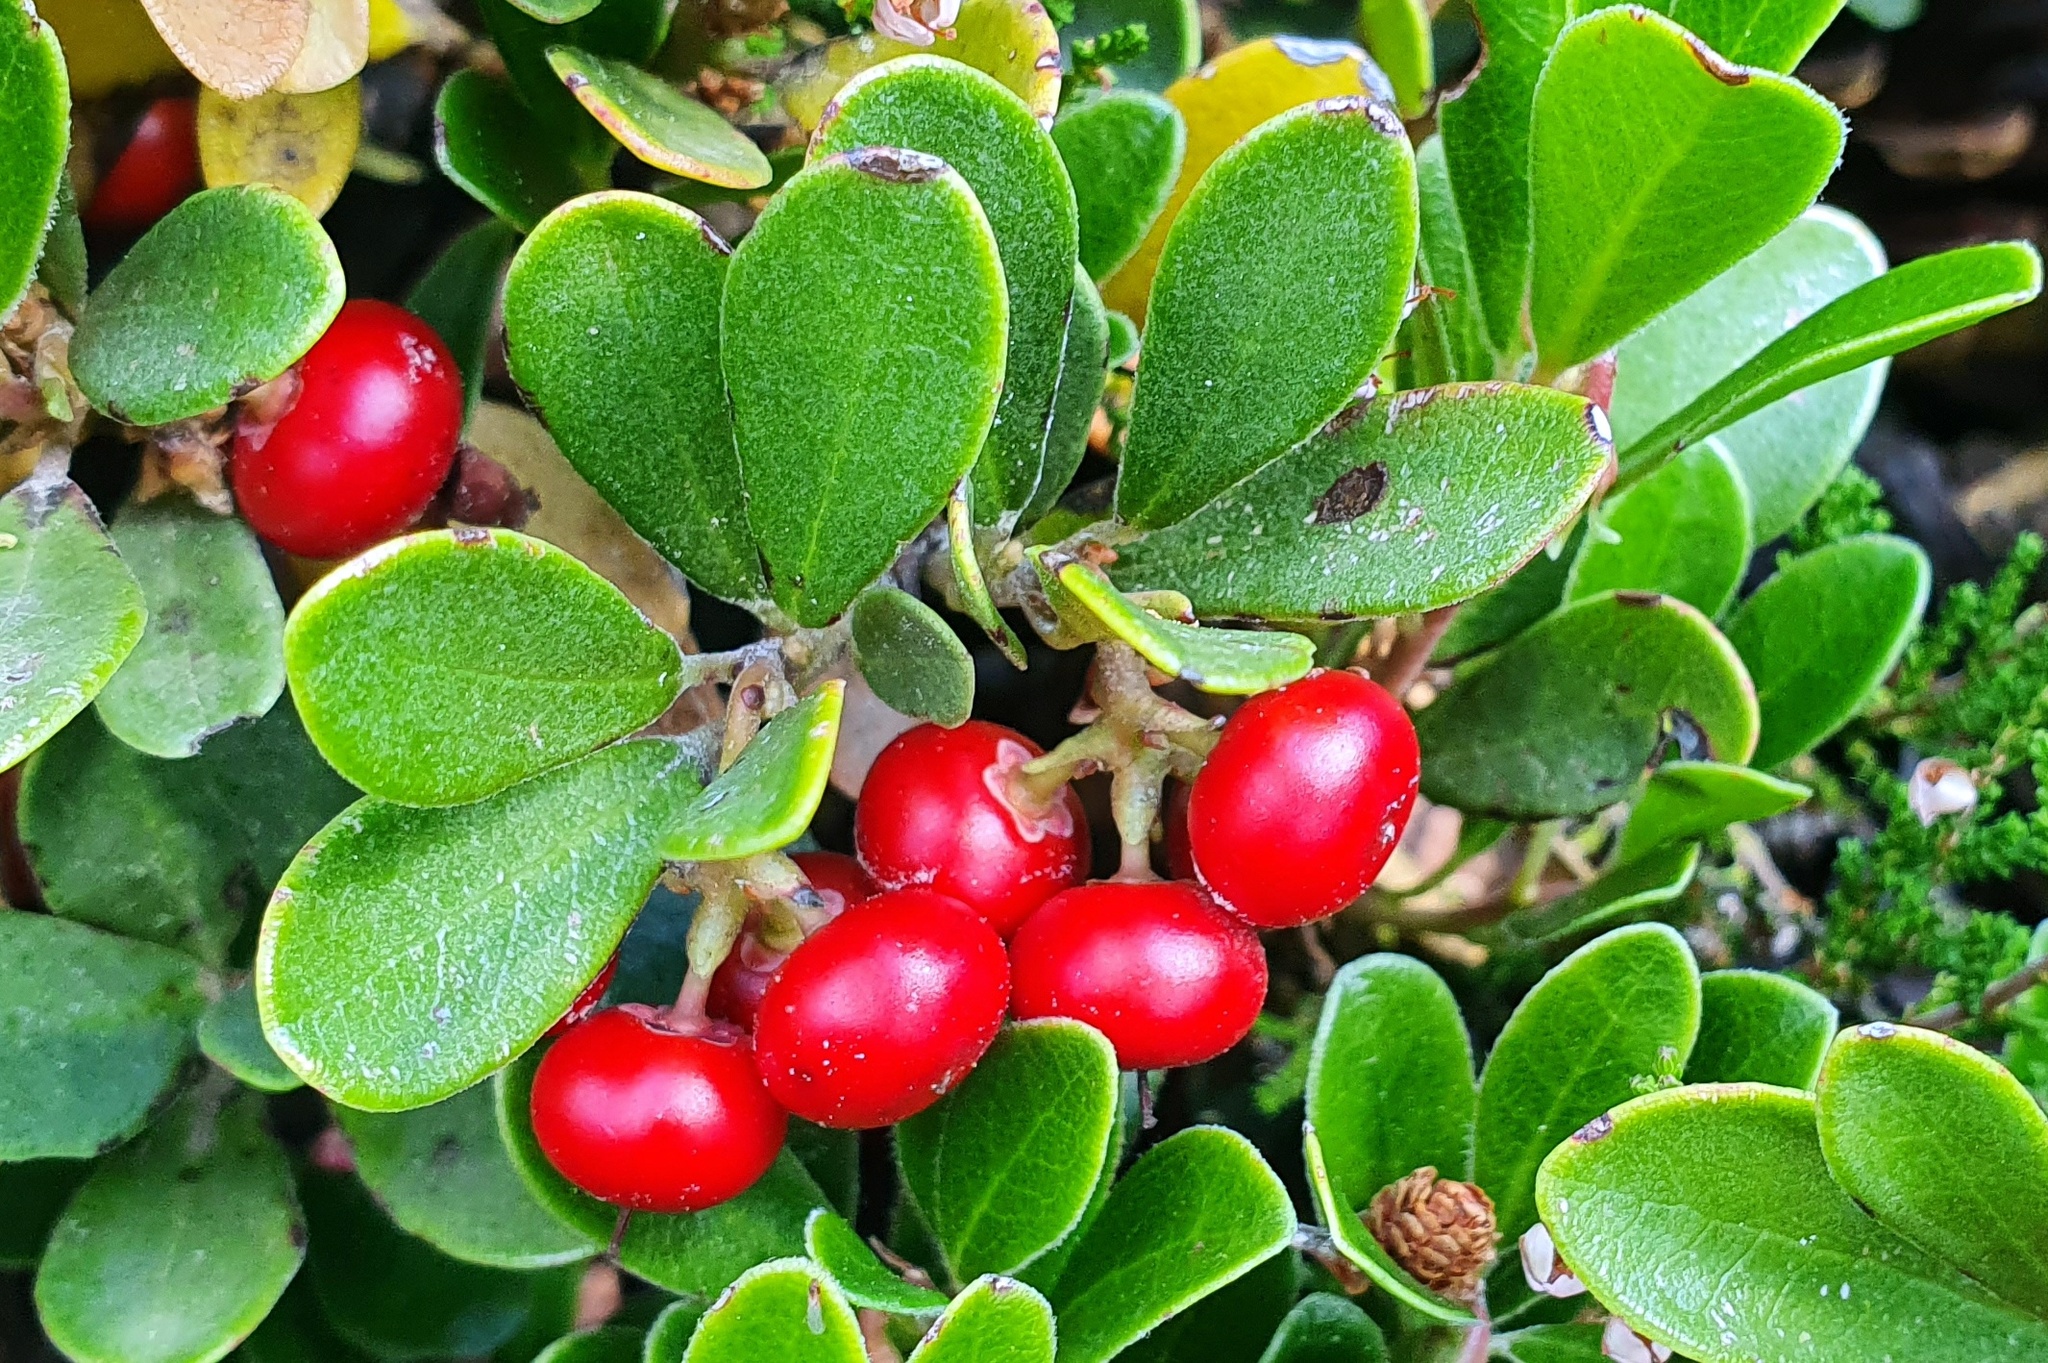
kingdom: Plantae
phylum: Tracheophyta
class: Magnoliopsida
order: Ericales
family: Ericaceae
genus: Arctostaphylos
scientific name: Arctostaphylos uva-ursi
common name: Bearberry
